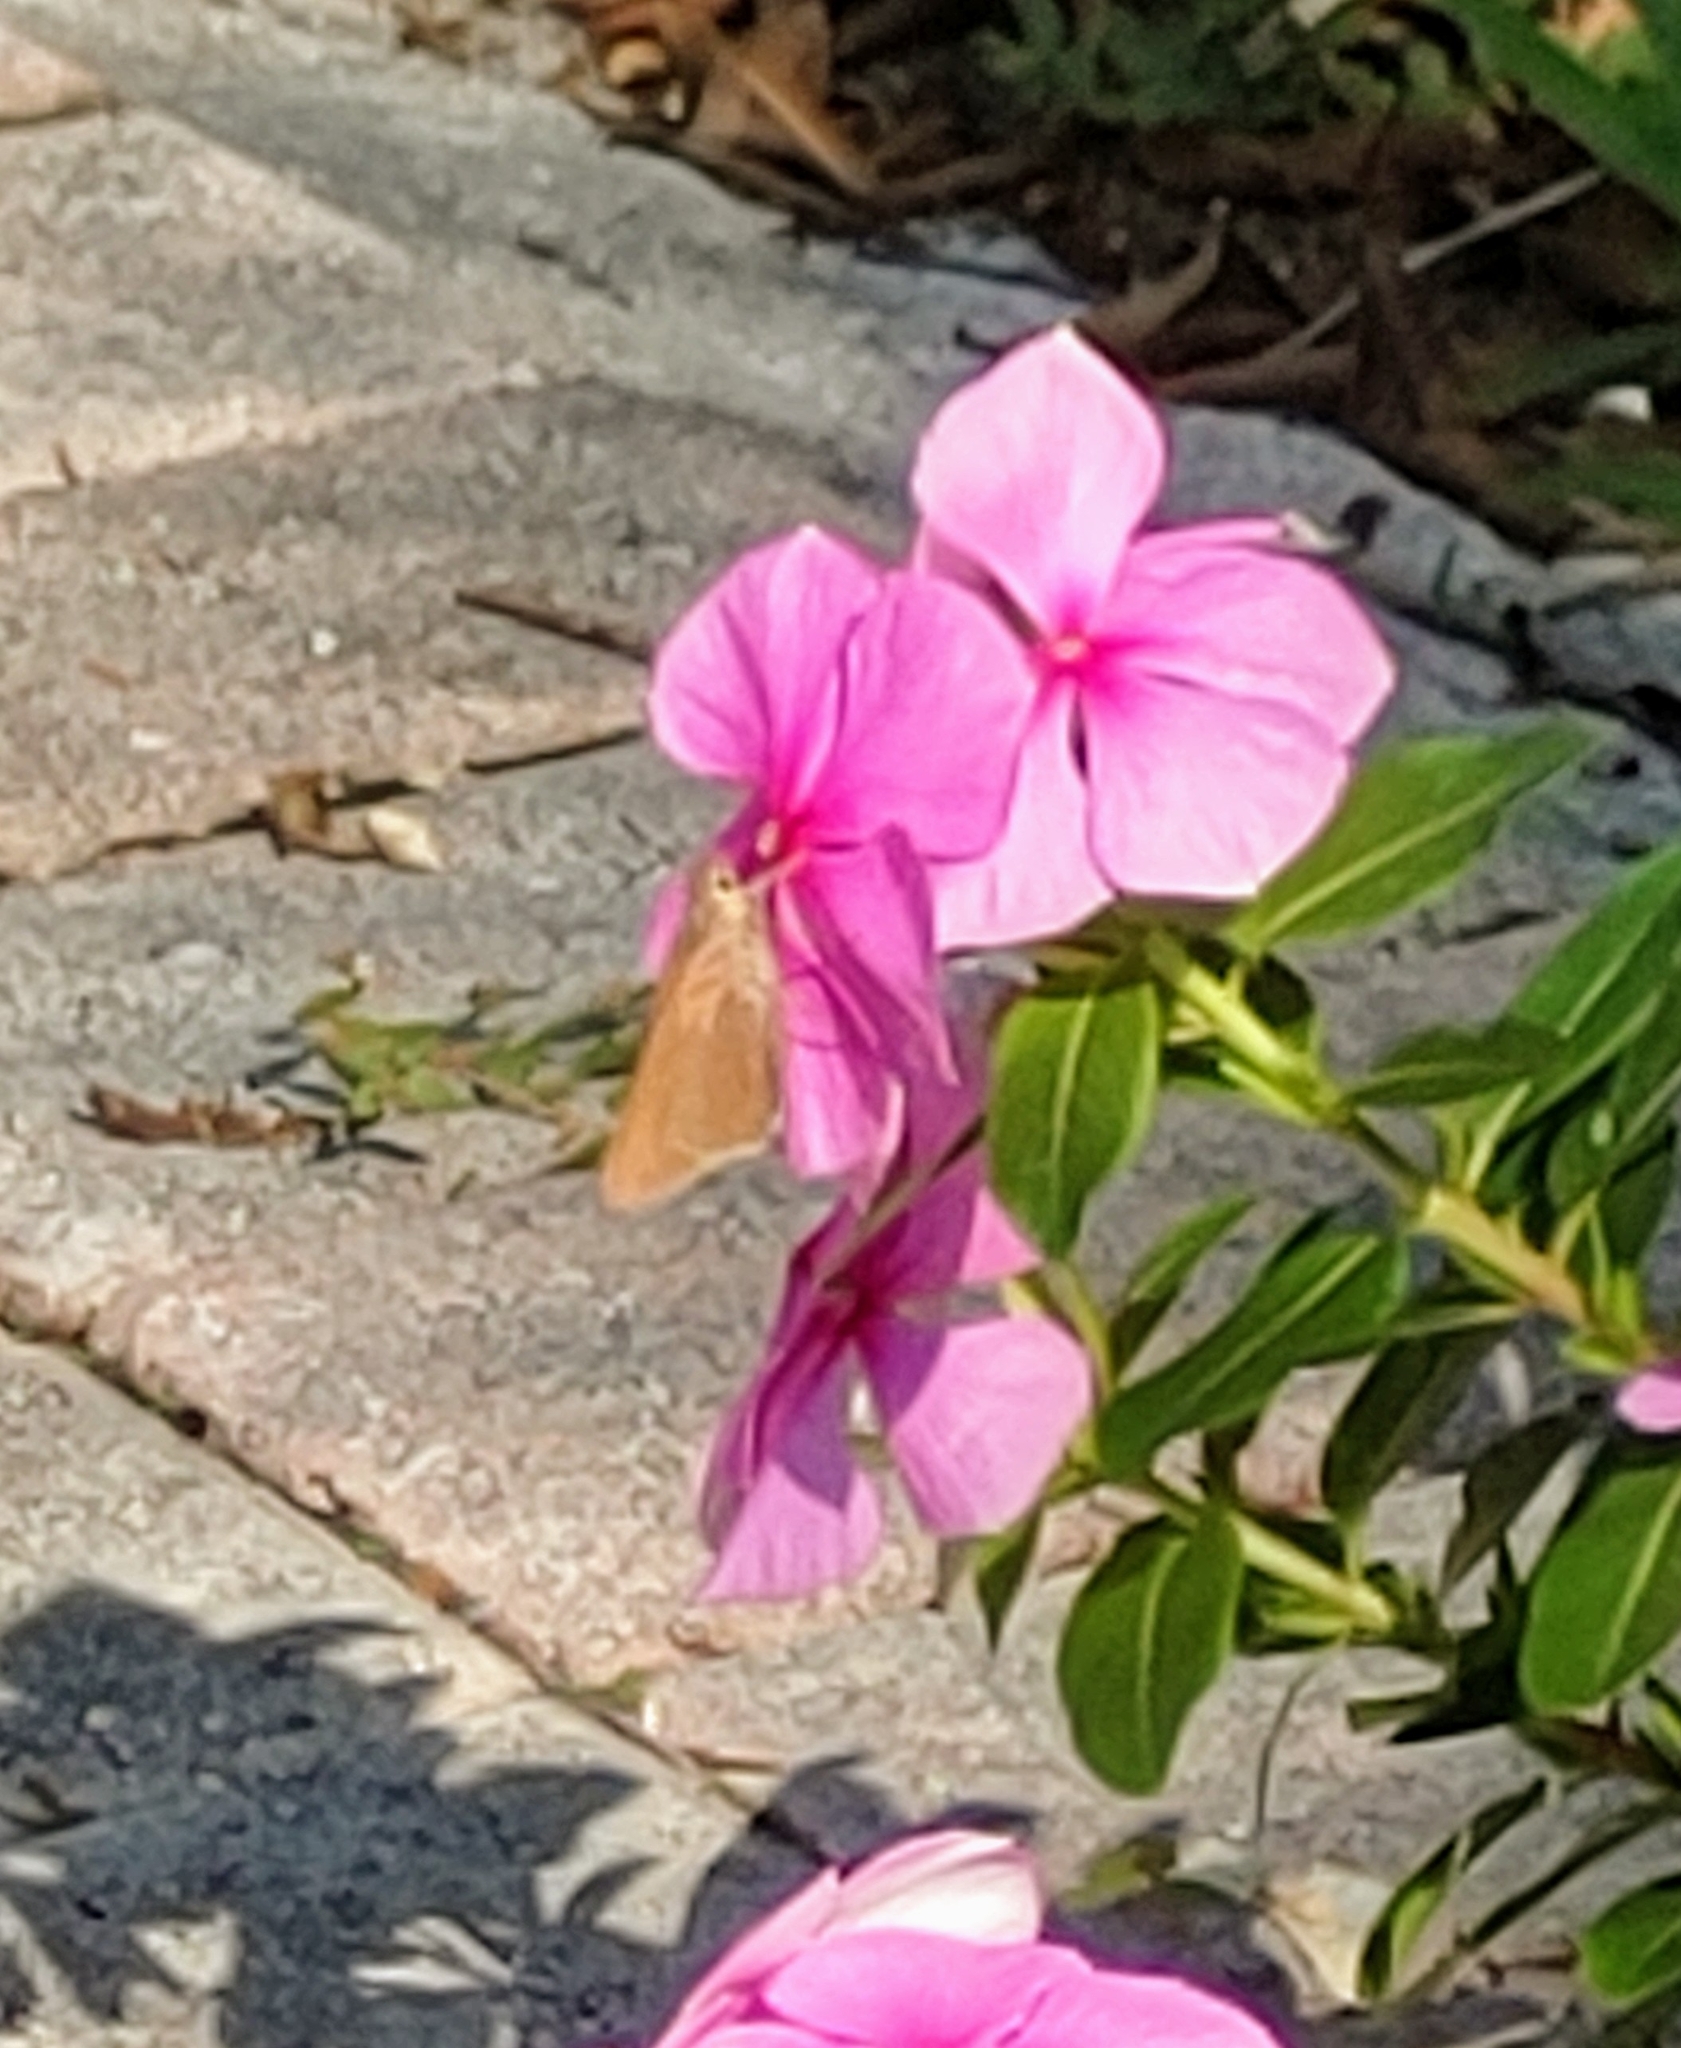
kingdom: Animalia
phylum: Arthropoda
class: Insecta
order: Lepidoptera
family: Hesperiidae
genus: Asbolis
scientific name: Asbolis capucinus
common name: Monk skipper
